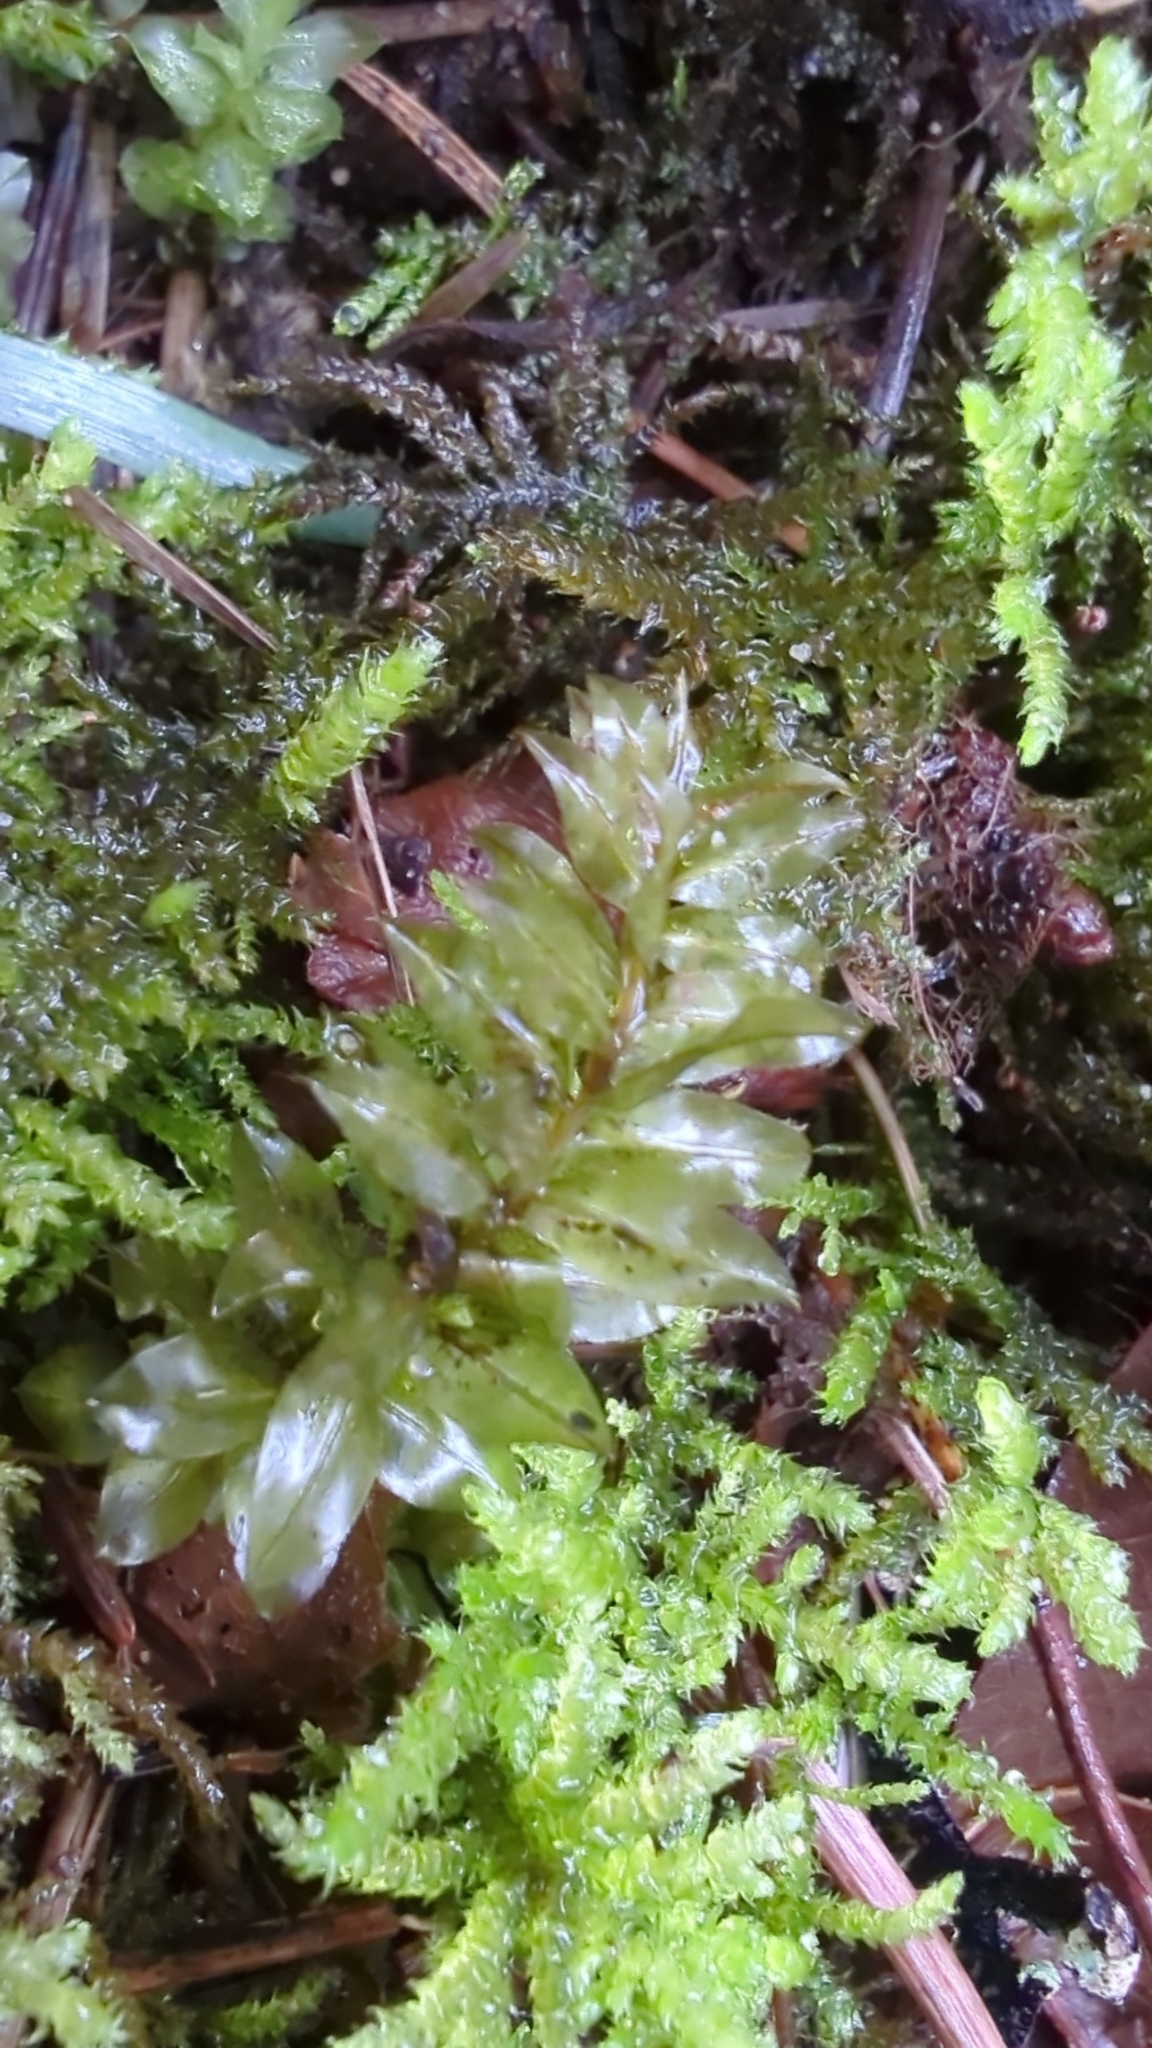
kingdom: Plantae
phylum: Bryophyta
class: Bryopsida
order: Bryales
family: Mniaceae
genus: Plagiomnium
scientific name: Plagiomnium insigne
